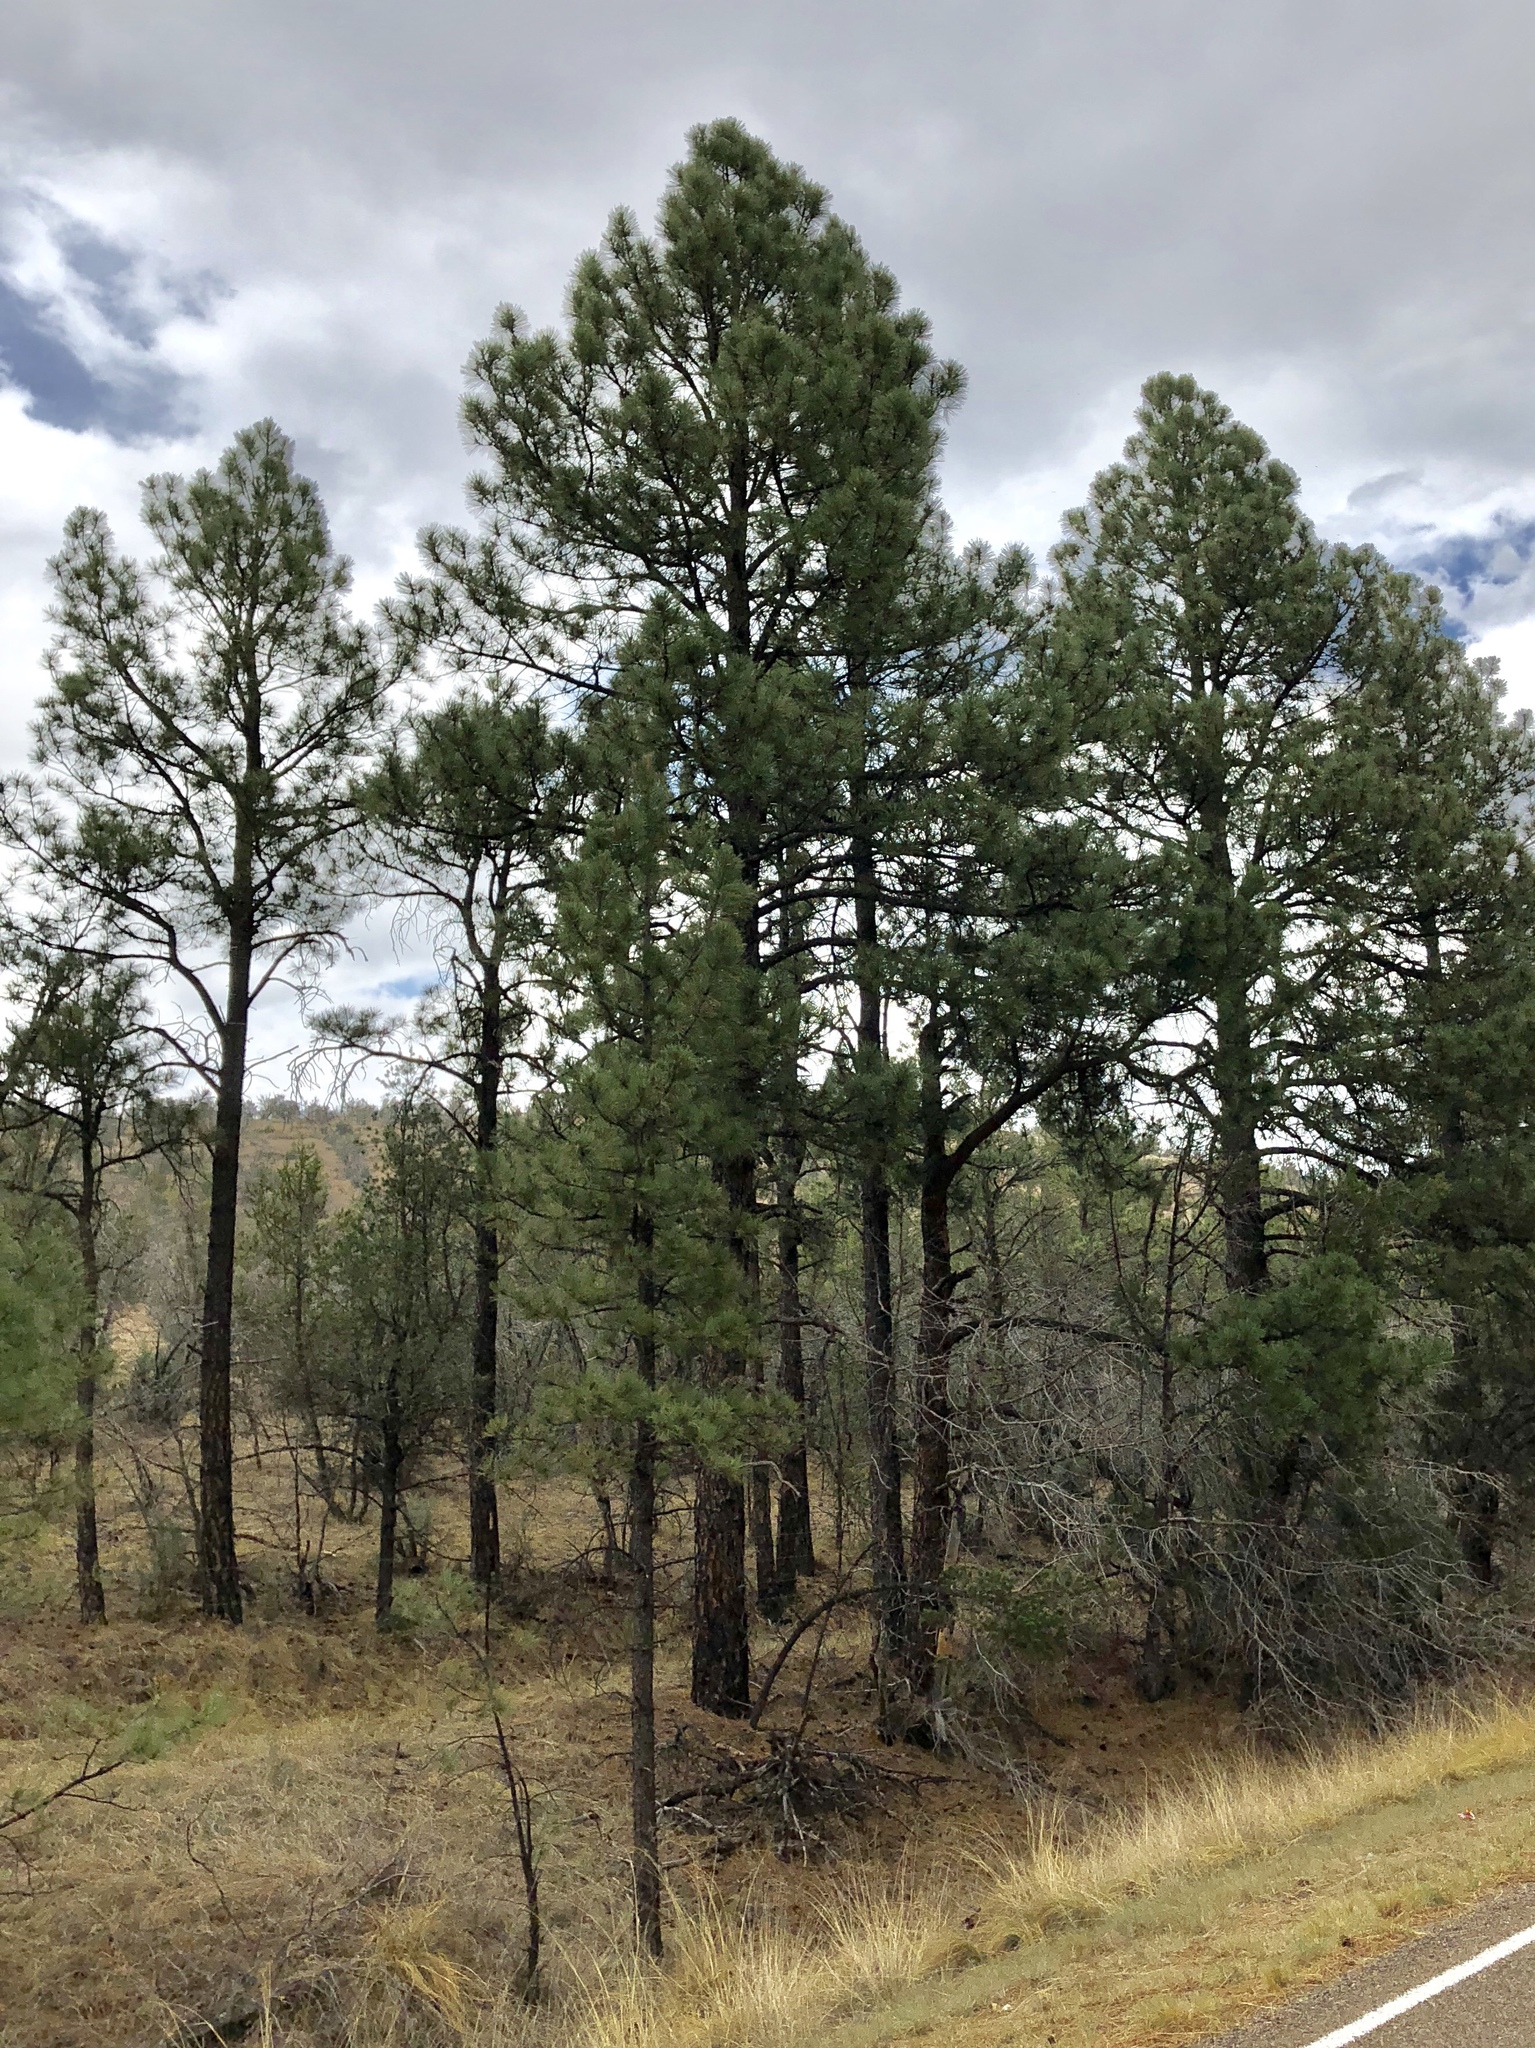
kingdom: Plantae
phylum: Tracheophyta
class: Pinopsida
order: Pinales
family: Pinaceae
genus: Pinus
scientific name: Pinus ponderosa
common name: Western yellow-pine
